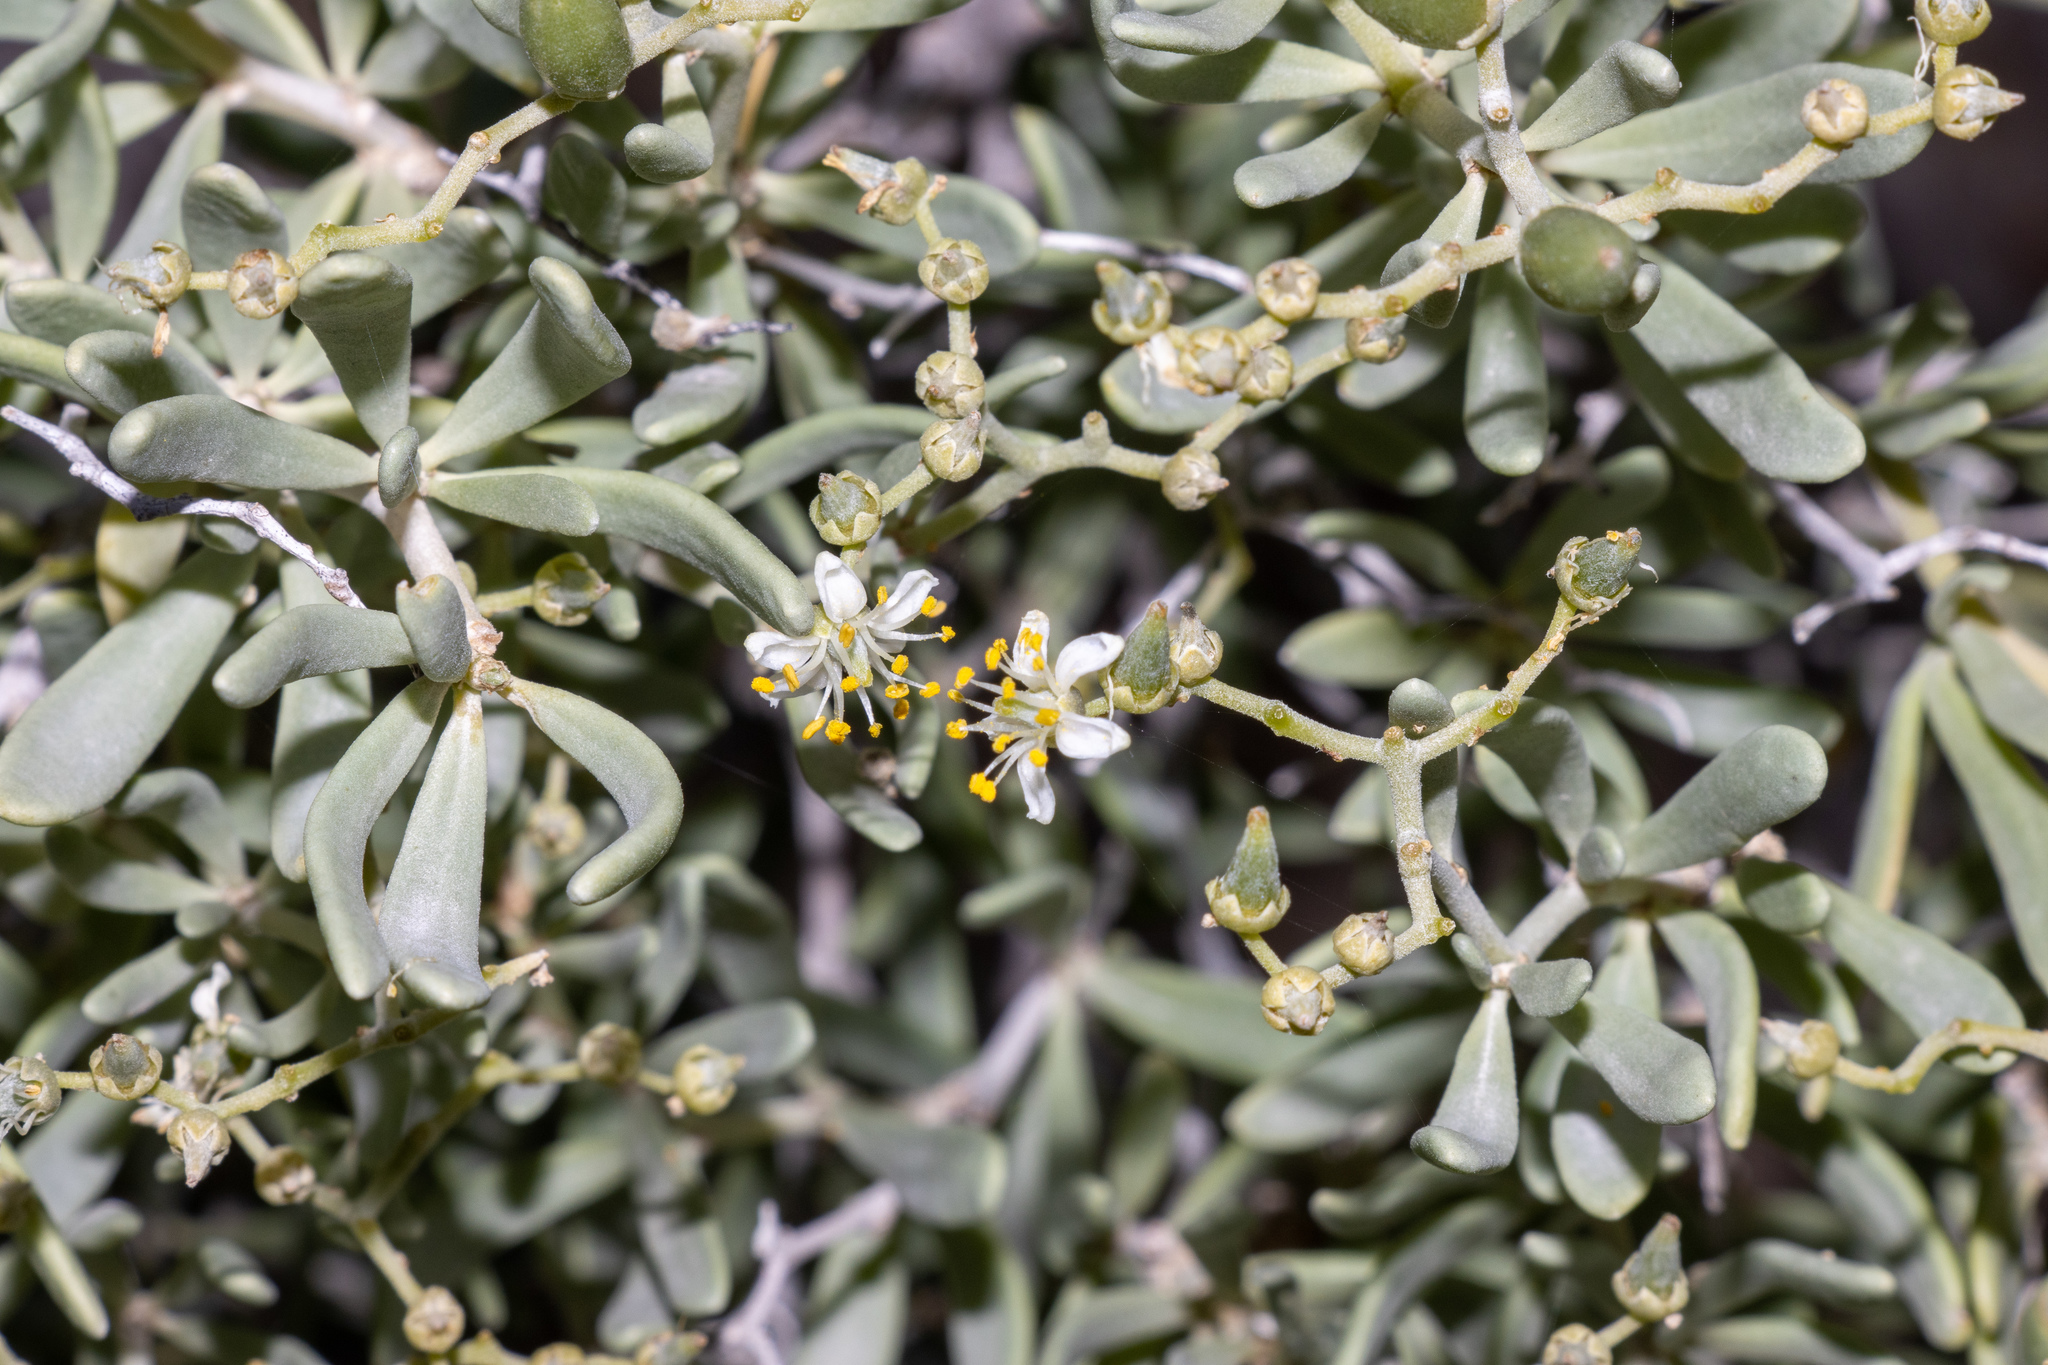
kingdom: Plantae
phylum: Tracheophyta
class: Magnoliopsida
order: Sapindales
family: Nitrariaceae
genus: Nitraria
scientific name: Nitraria billardierei
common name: Dillonbush
